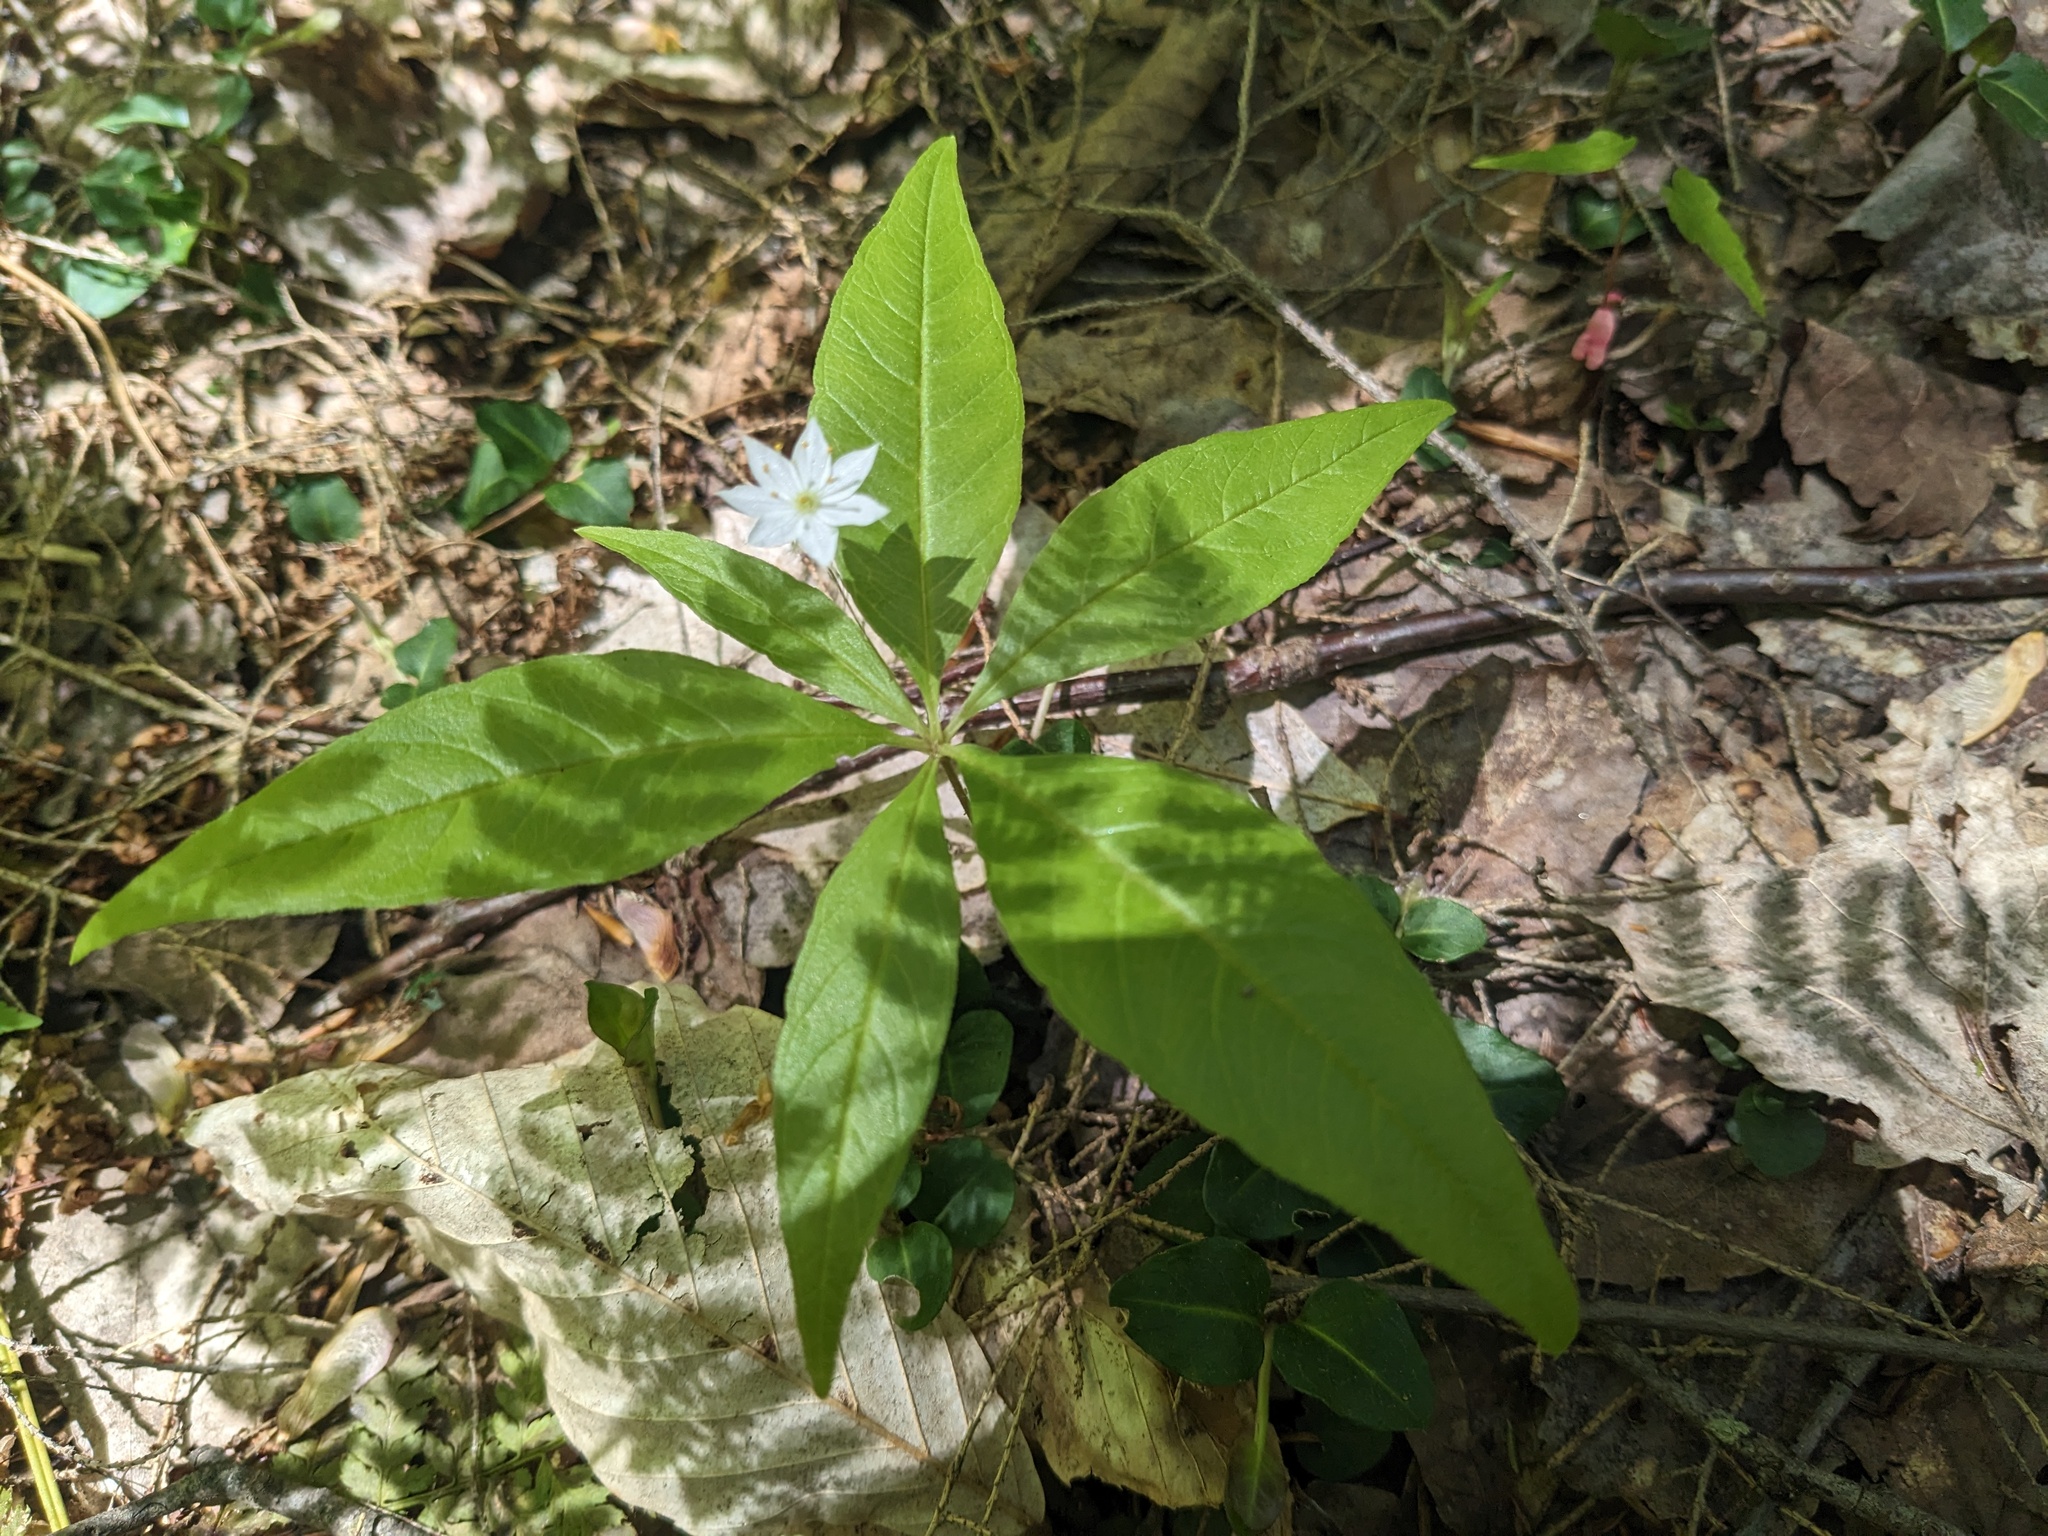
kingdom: Plantae
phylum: Tracheophyta
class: Magnoliopsida
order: Ericales
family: Primulaceae
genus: Lysimachia
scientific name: Lysimachia borealis
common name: American starflower
